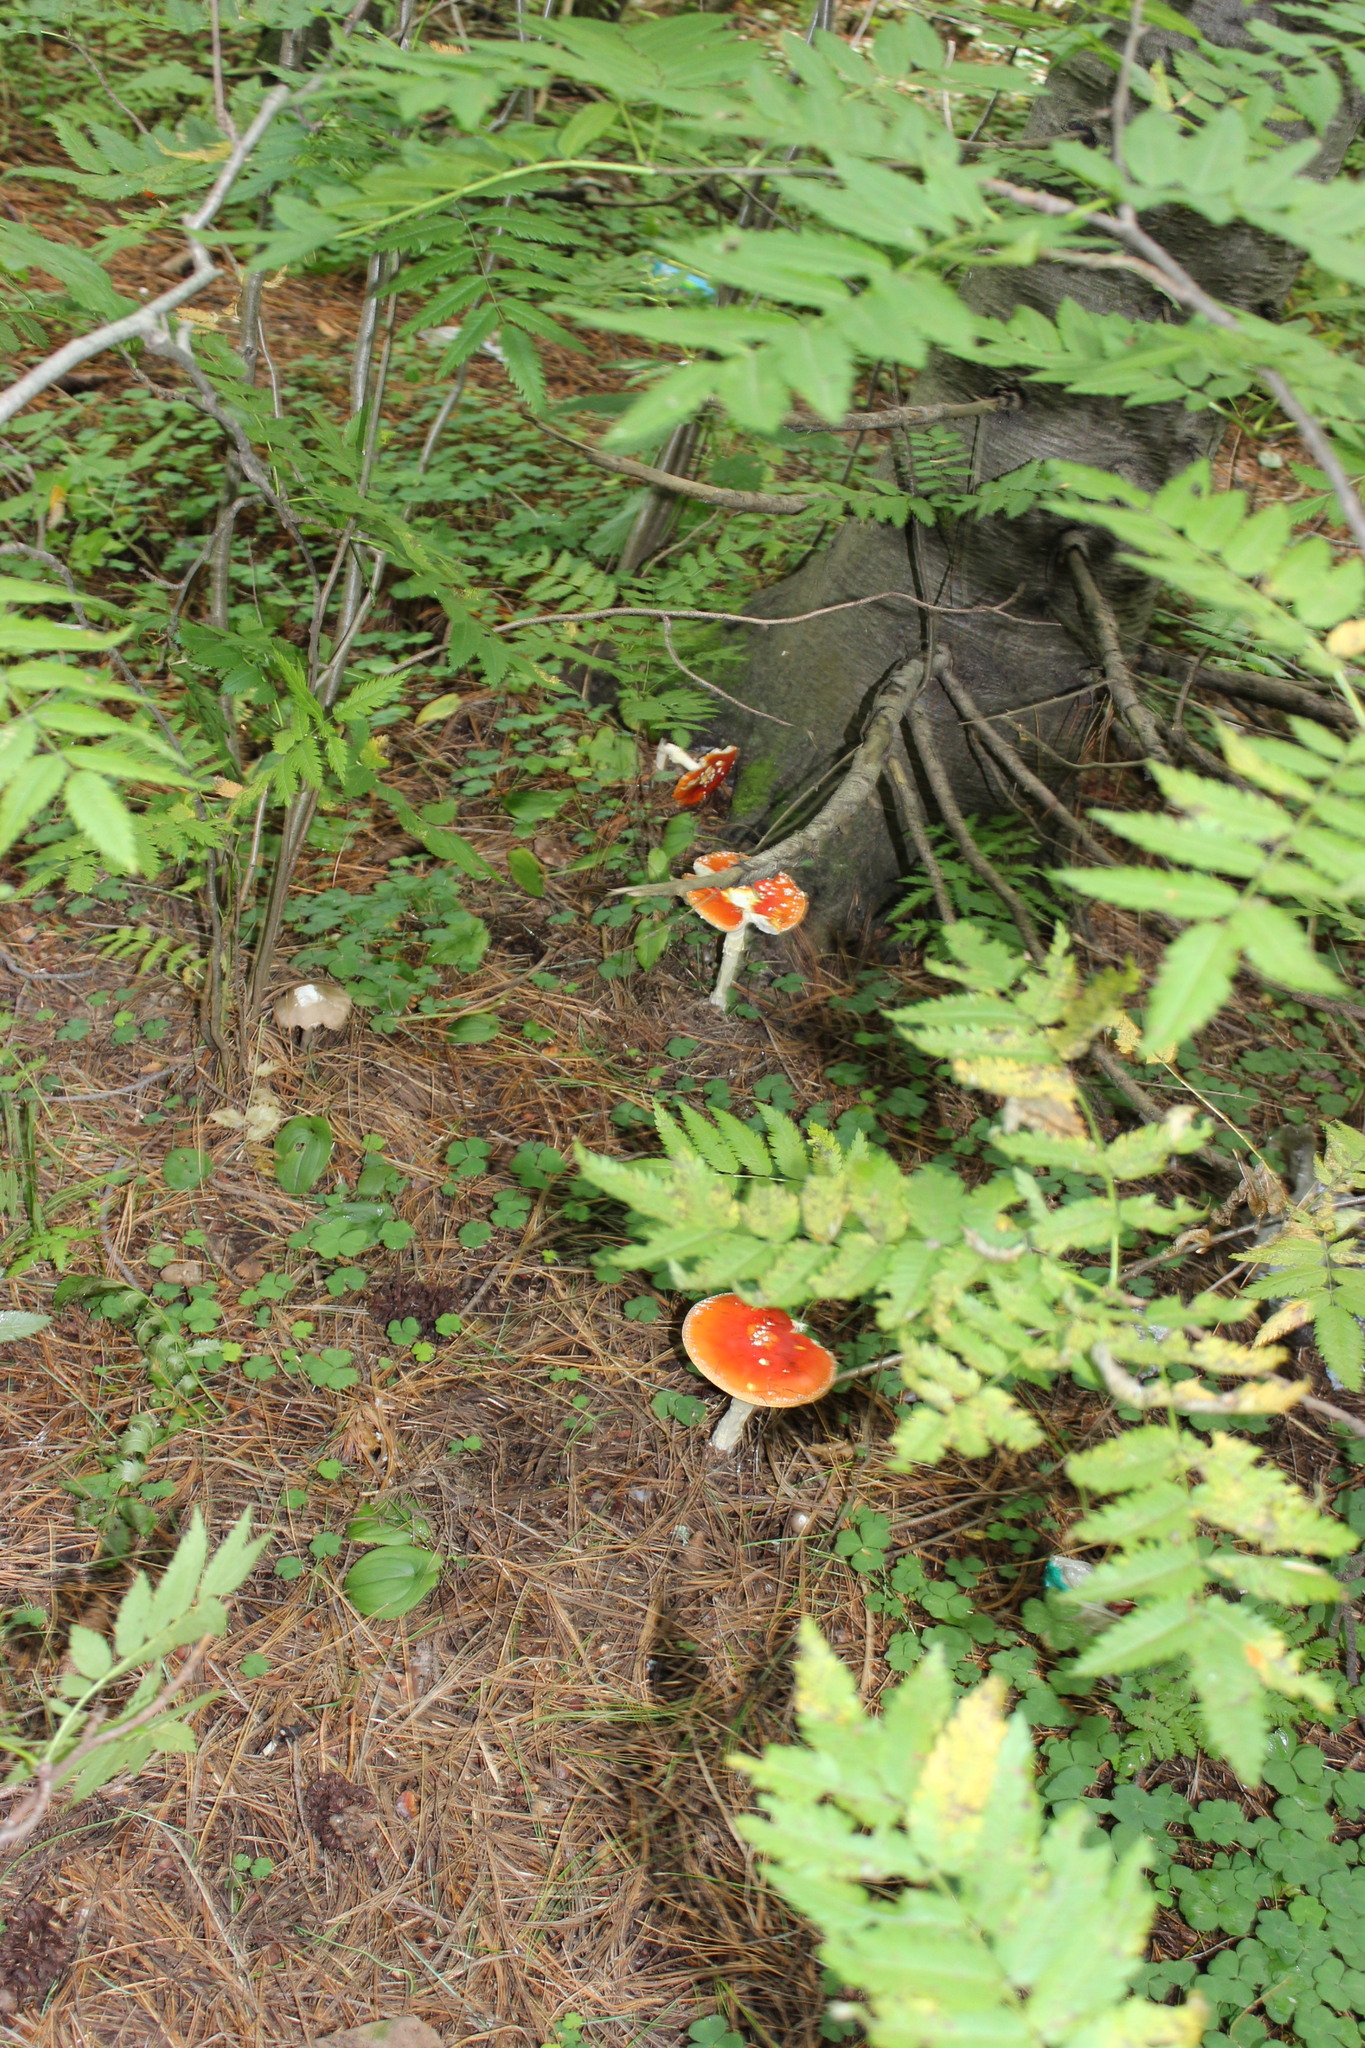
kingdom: Fungi
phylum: Basidiomycota
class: Agaricomycetes
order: Agaricales
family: Amanitaceae
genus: Amanita
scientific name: Amanita muscaria
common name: Fly agaric
